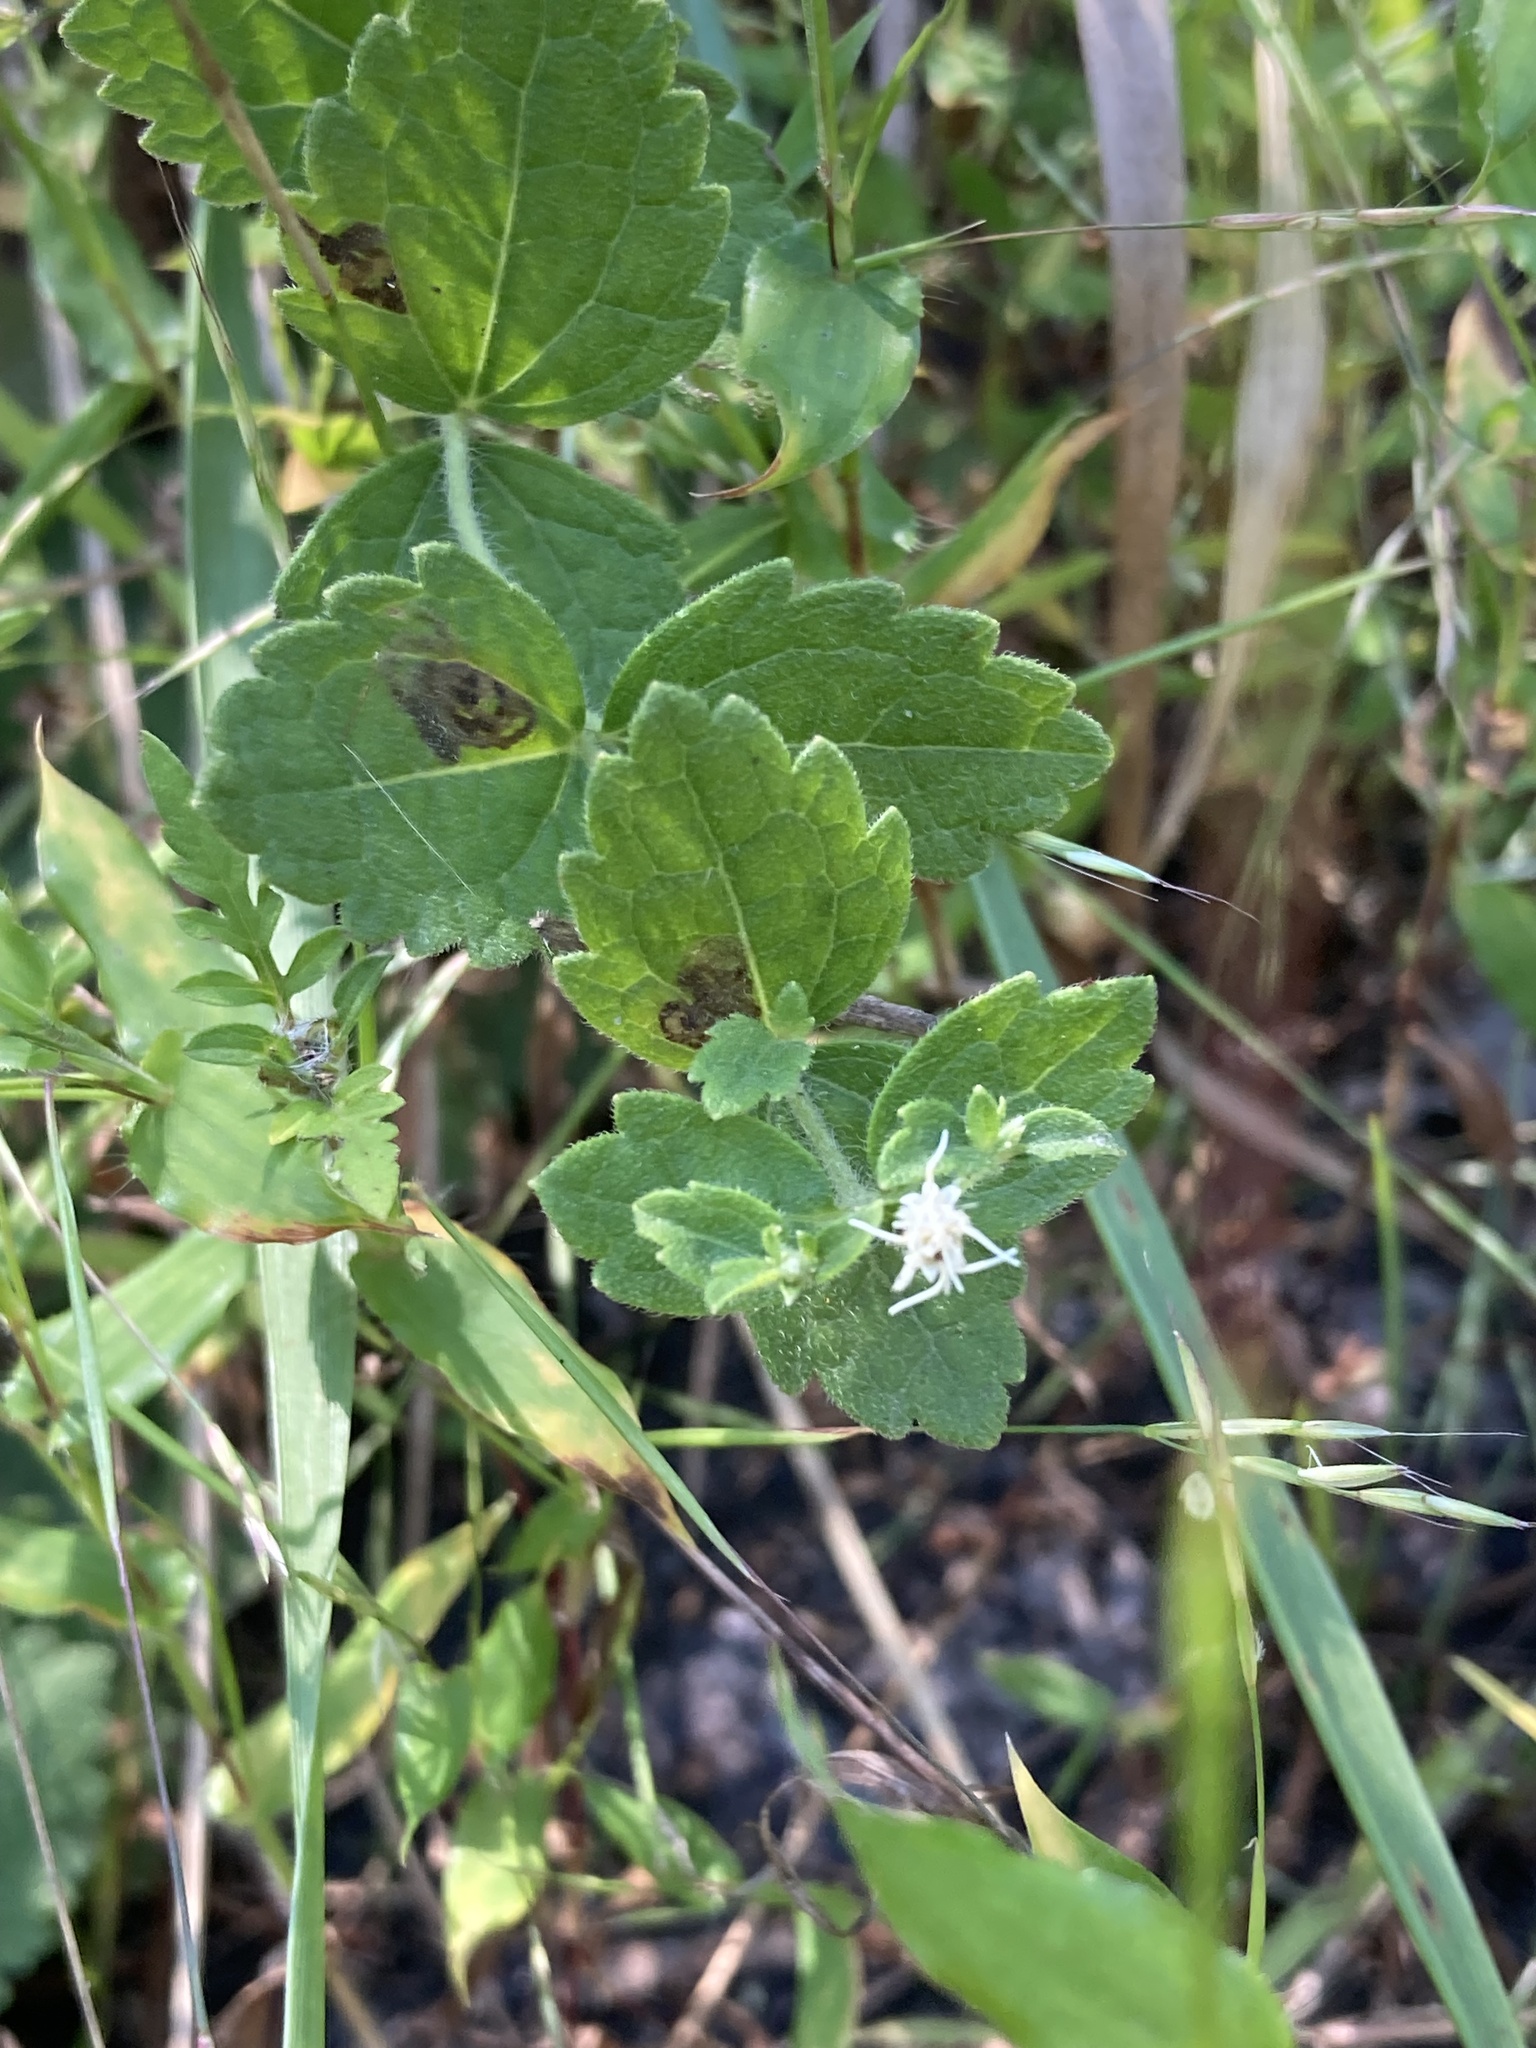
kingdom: Plantae
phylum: Tracheophyta
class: Magnoliopsida
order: Asterales
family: Asteraceae
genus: Eupatorium
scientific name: Eupatorium rotundifolium
